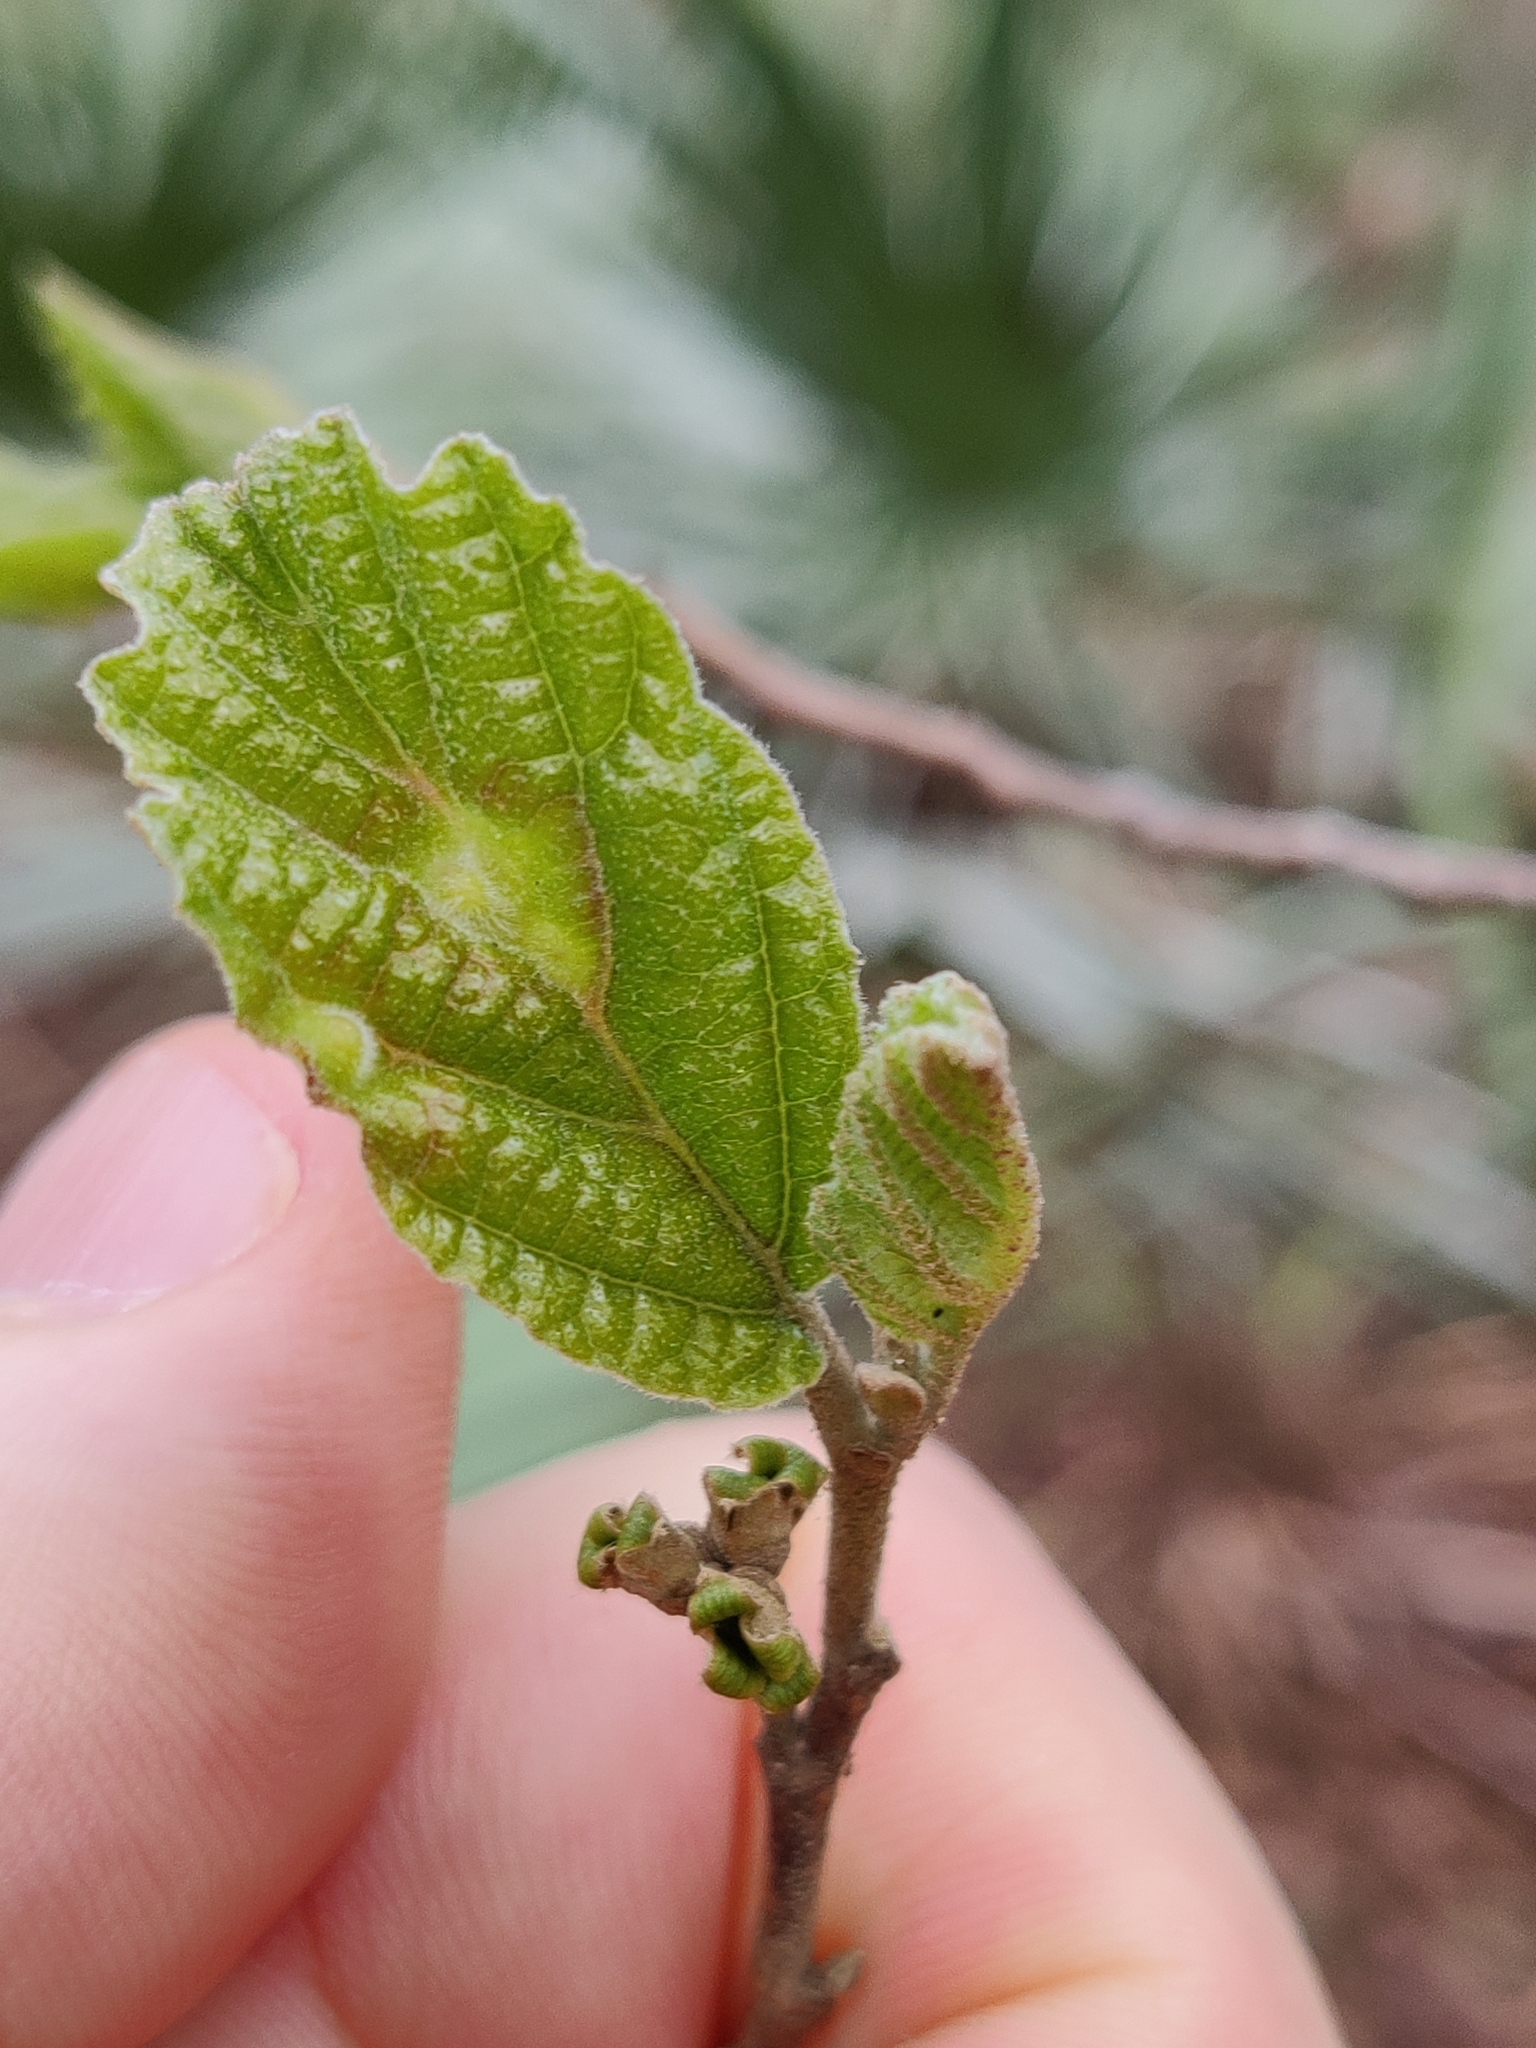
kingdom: Animalia
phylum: Arthropoda
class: Insecta
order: Hemiptera
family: Aphididae
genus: Hormaphis
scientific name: Hormaphis hamamelidis
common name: Witch-hazel cone gall aphid
